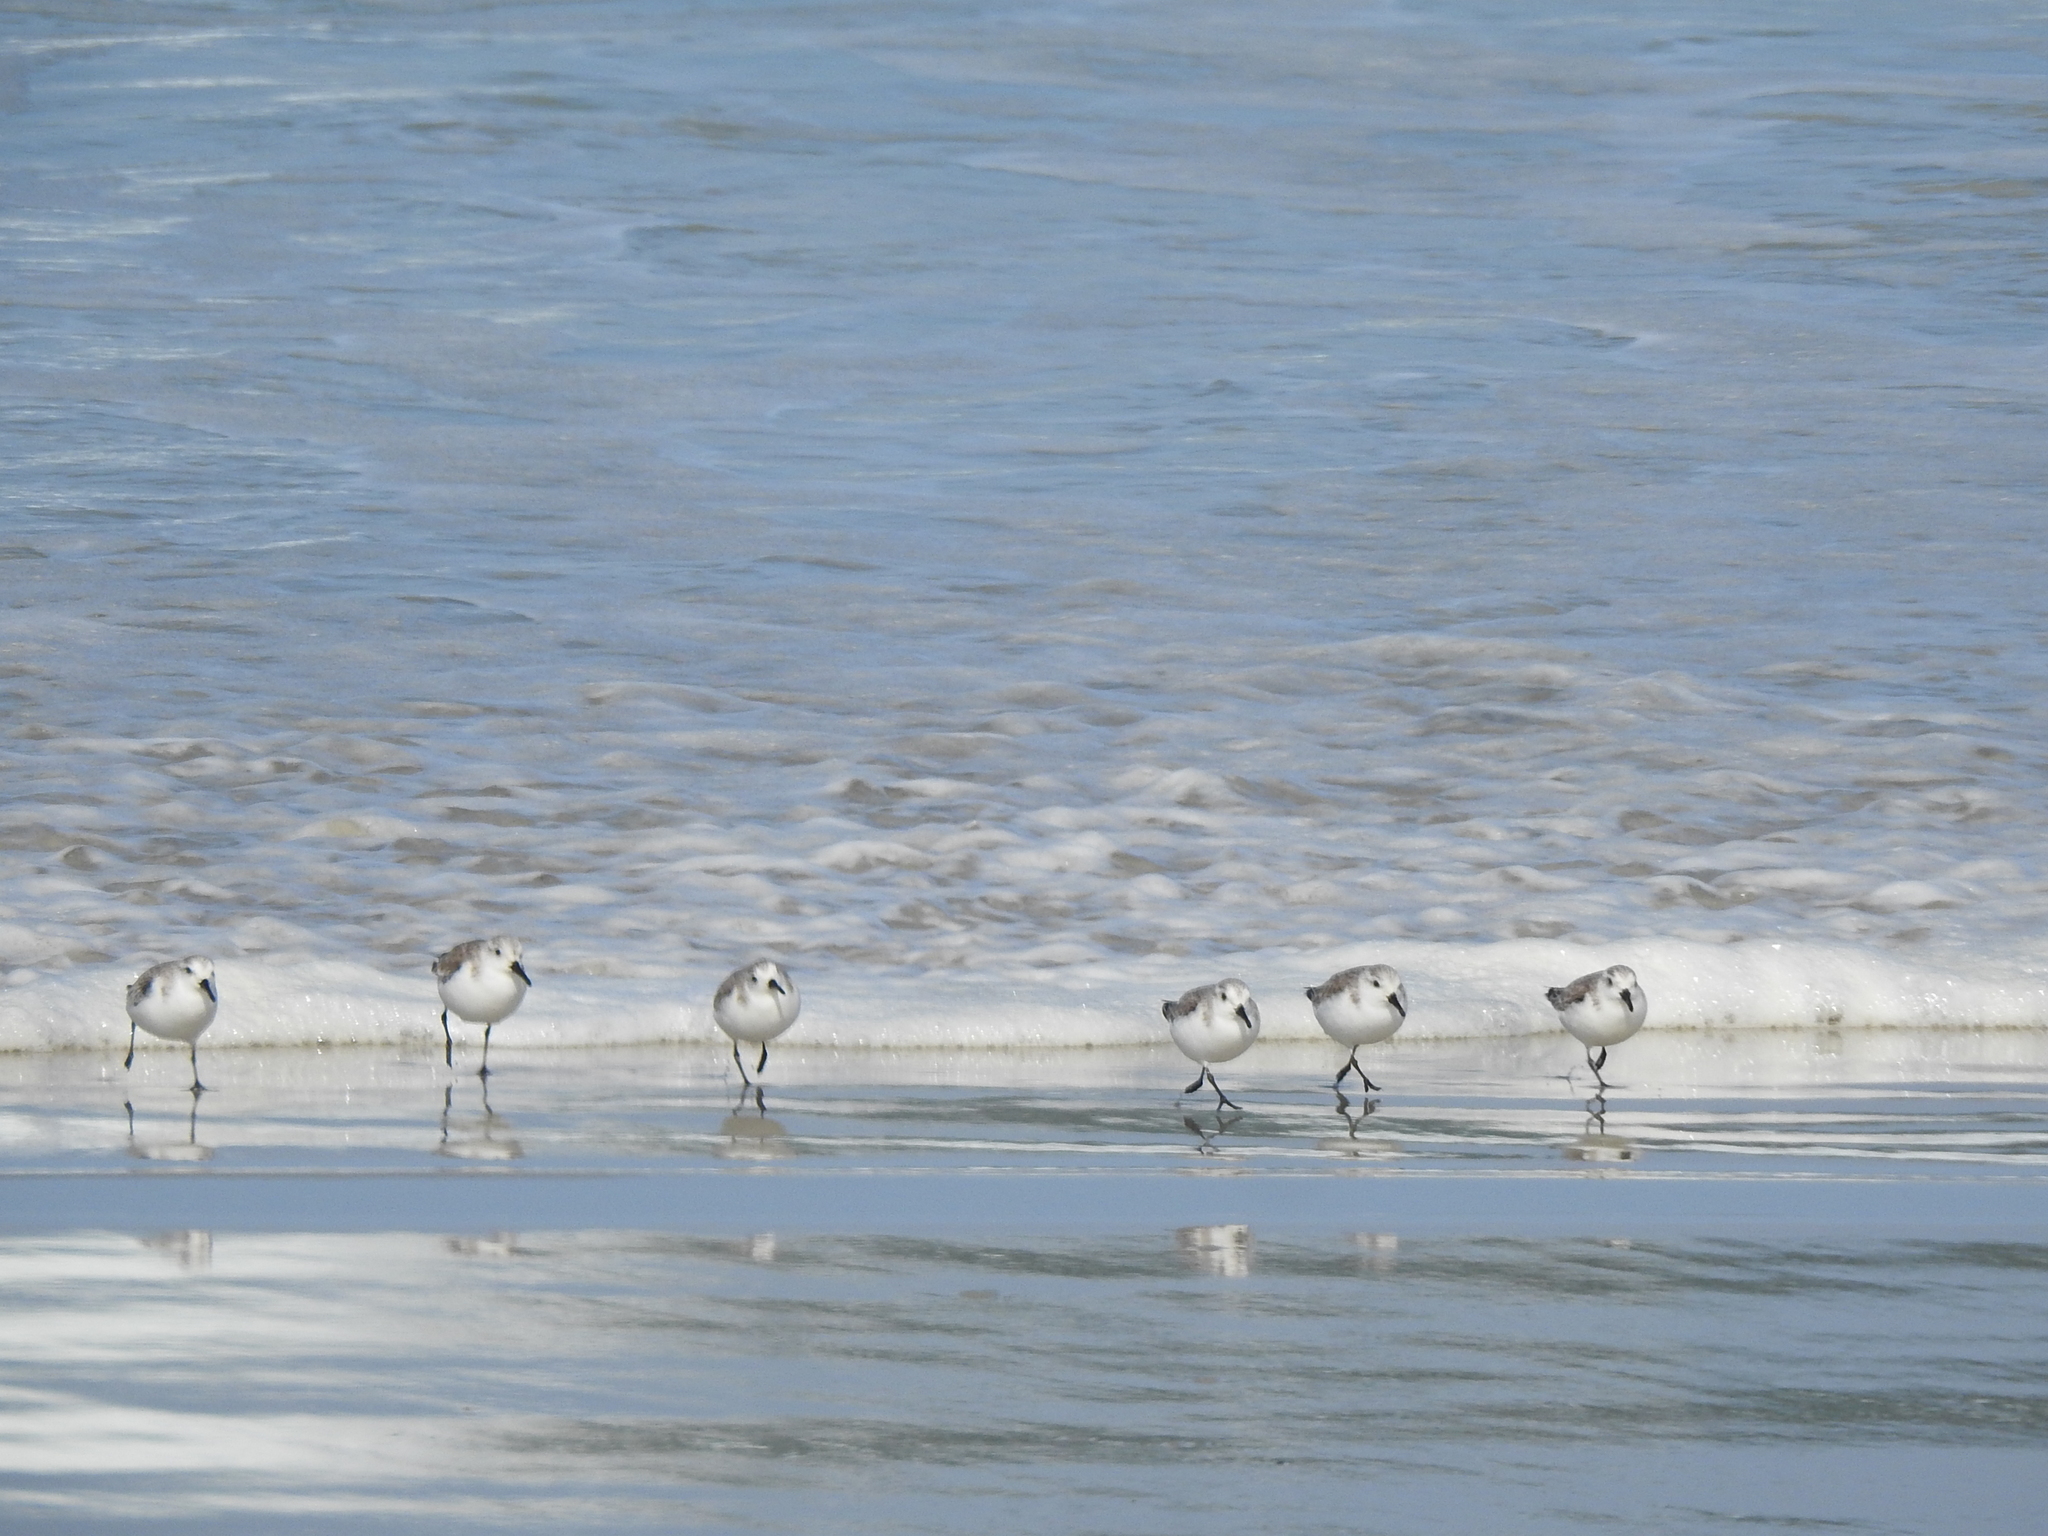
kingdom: Animalia
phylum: Chordata
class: Aves
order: Charadriiformes
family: Scolopacidae
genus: Calidris
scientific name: Calidris alba
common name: Sanderling
